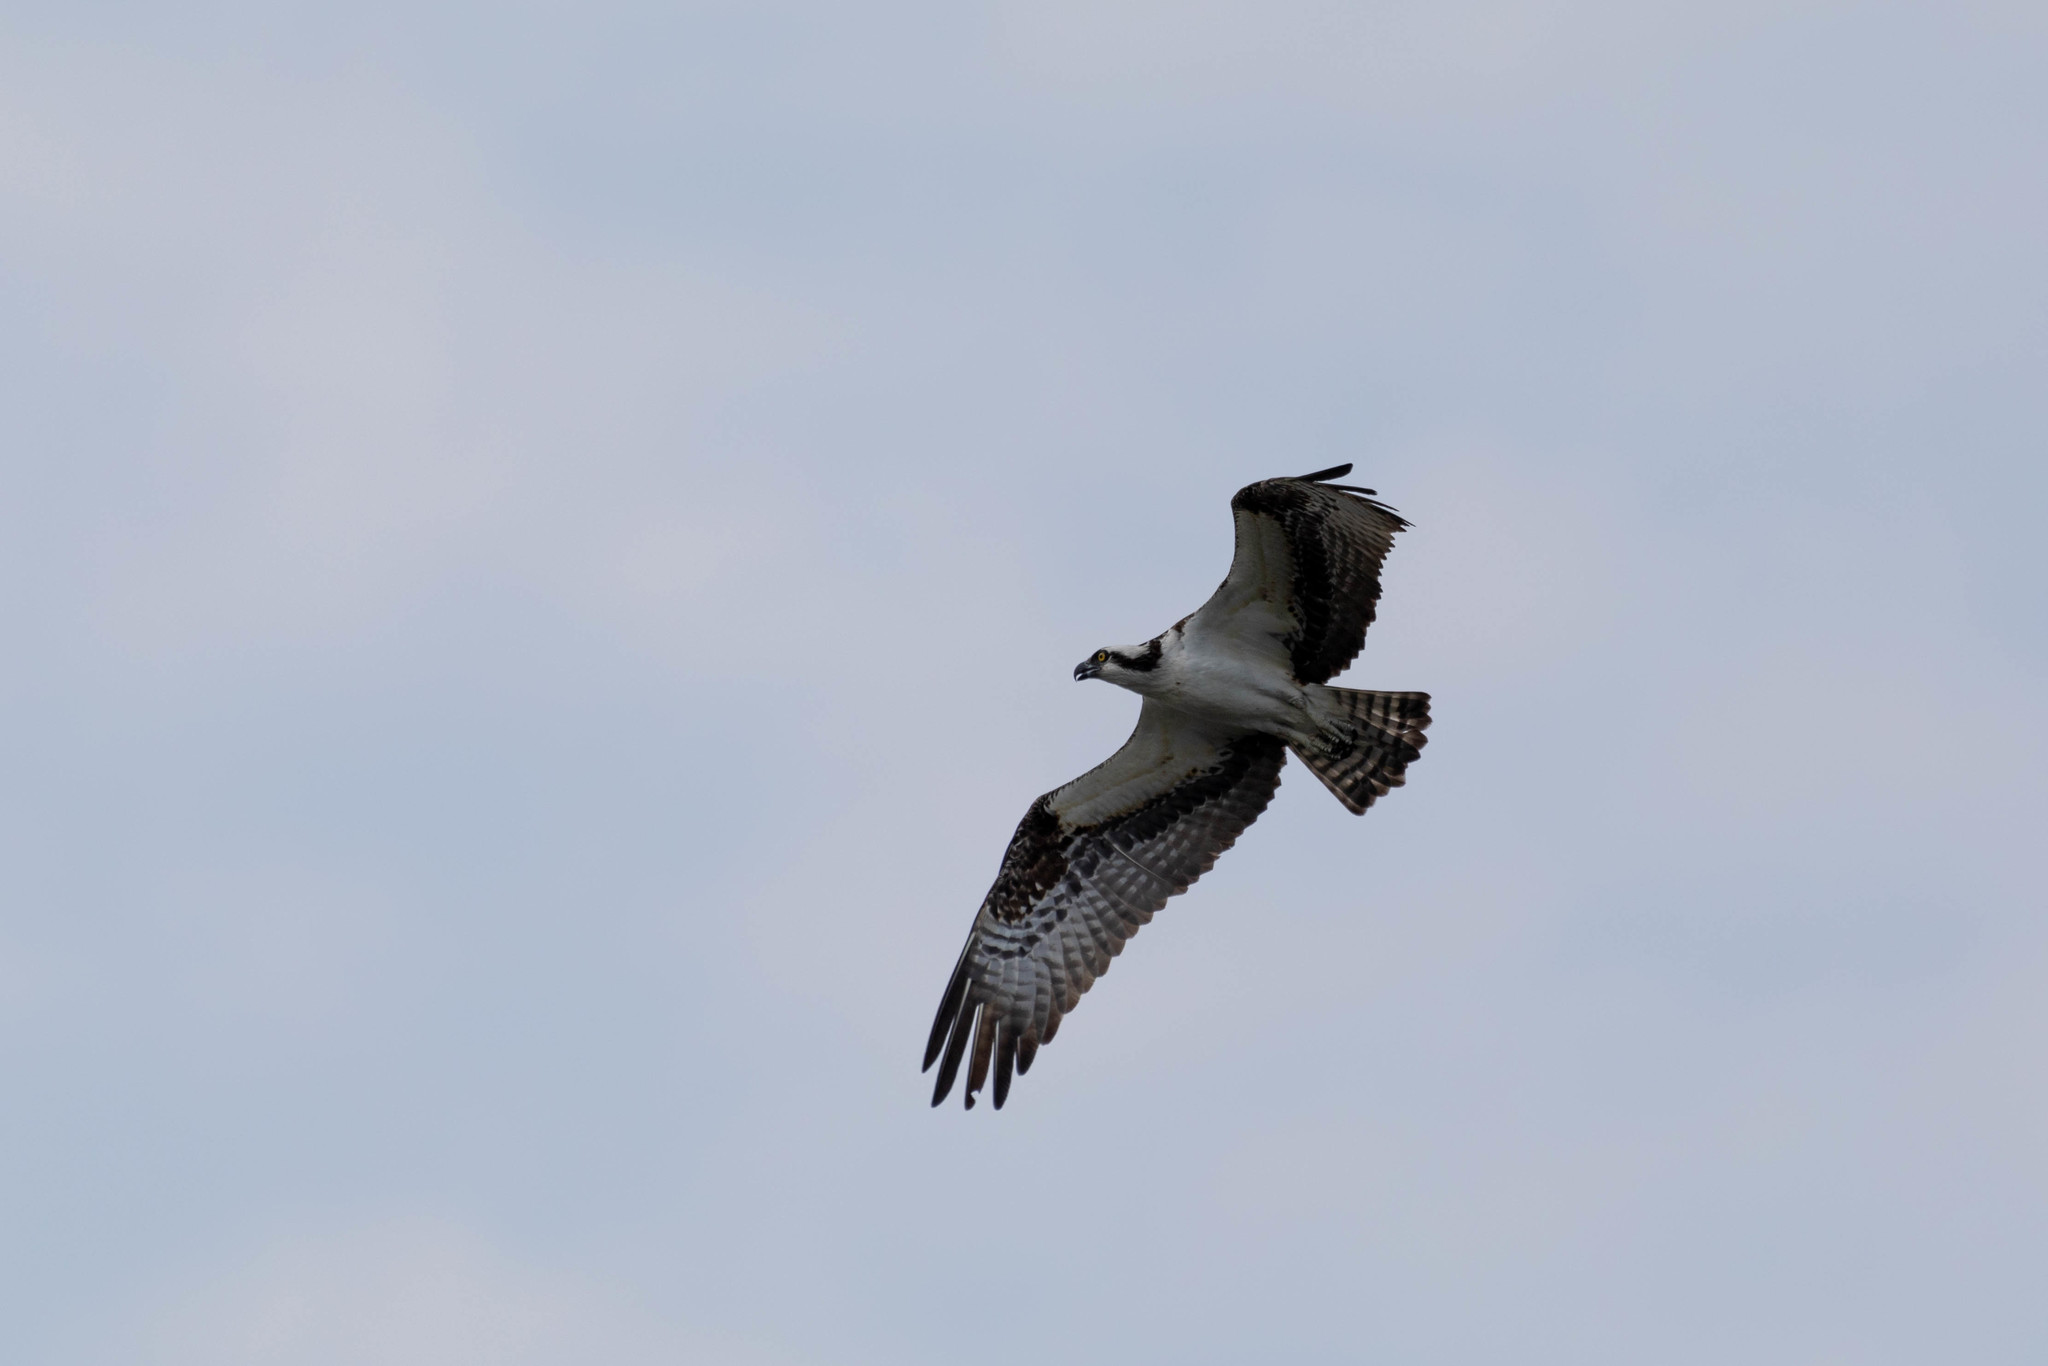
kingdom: Animalia
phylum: Chordata
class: Aves
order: Accipitriformes
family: Pandionidae
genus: Pandion
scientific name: Pandion haliaetus
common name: Osprey
